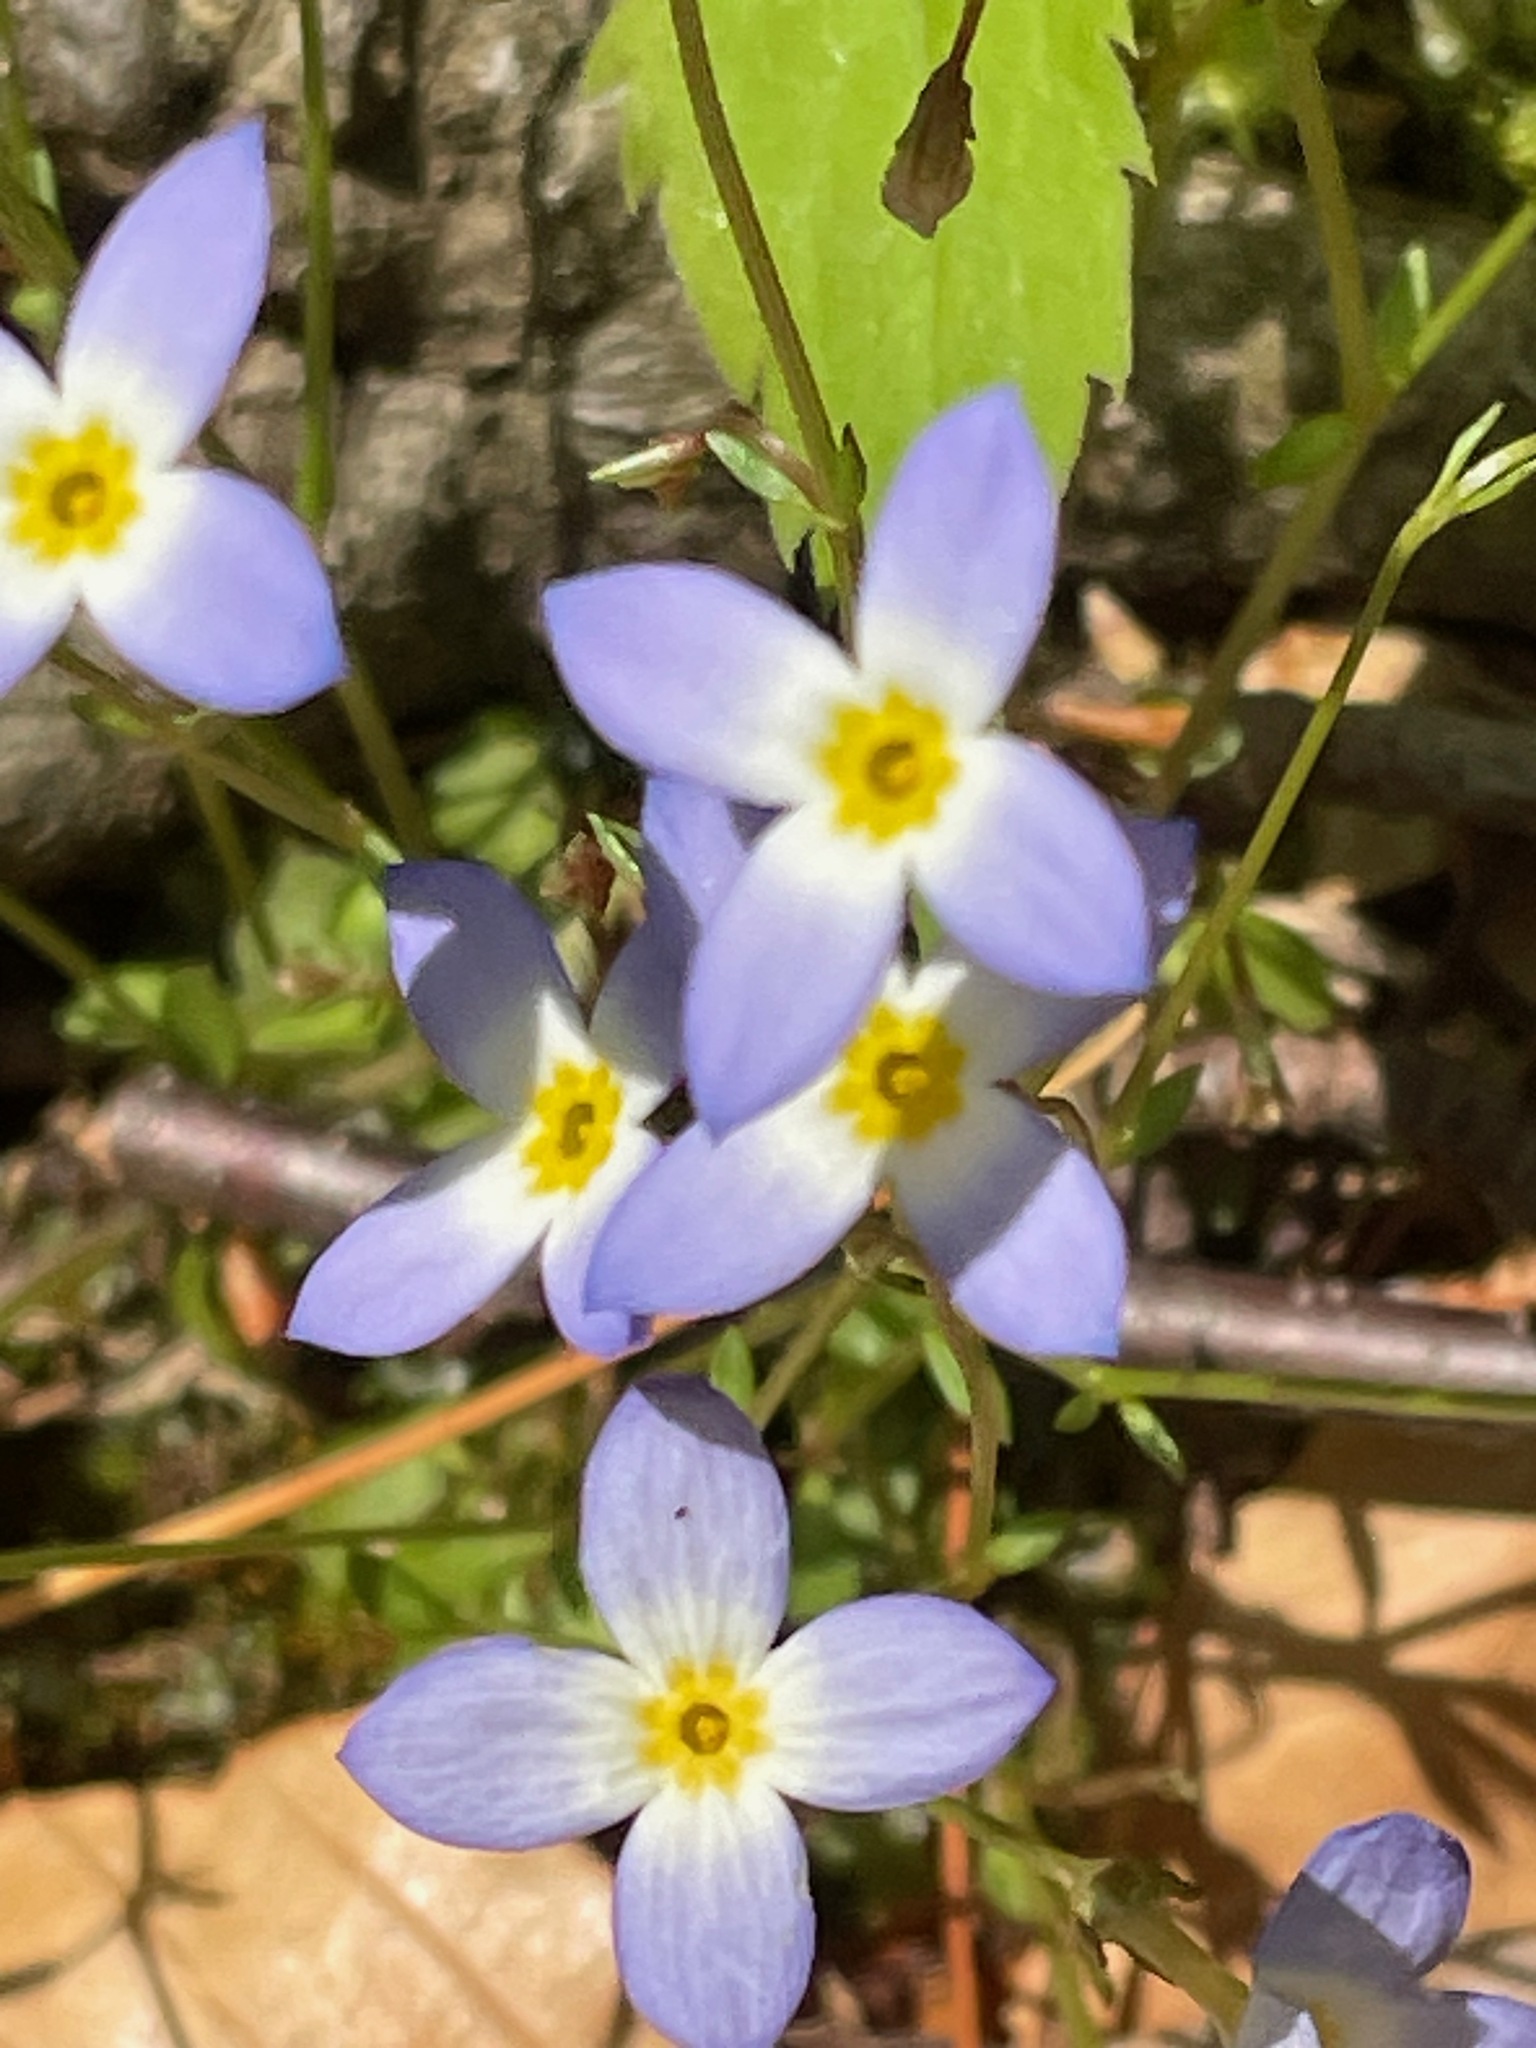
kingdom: Plantae
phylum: Tracheophyta
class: Magnoliopsida
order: Gentianales
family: Rubiaceae
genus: Houstonia
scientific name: Houstonia caerulea
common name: Bluets
